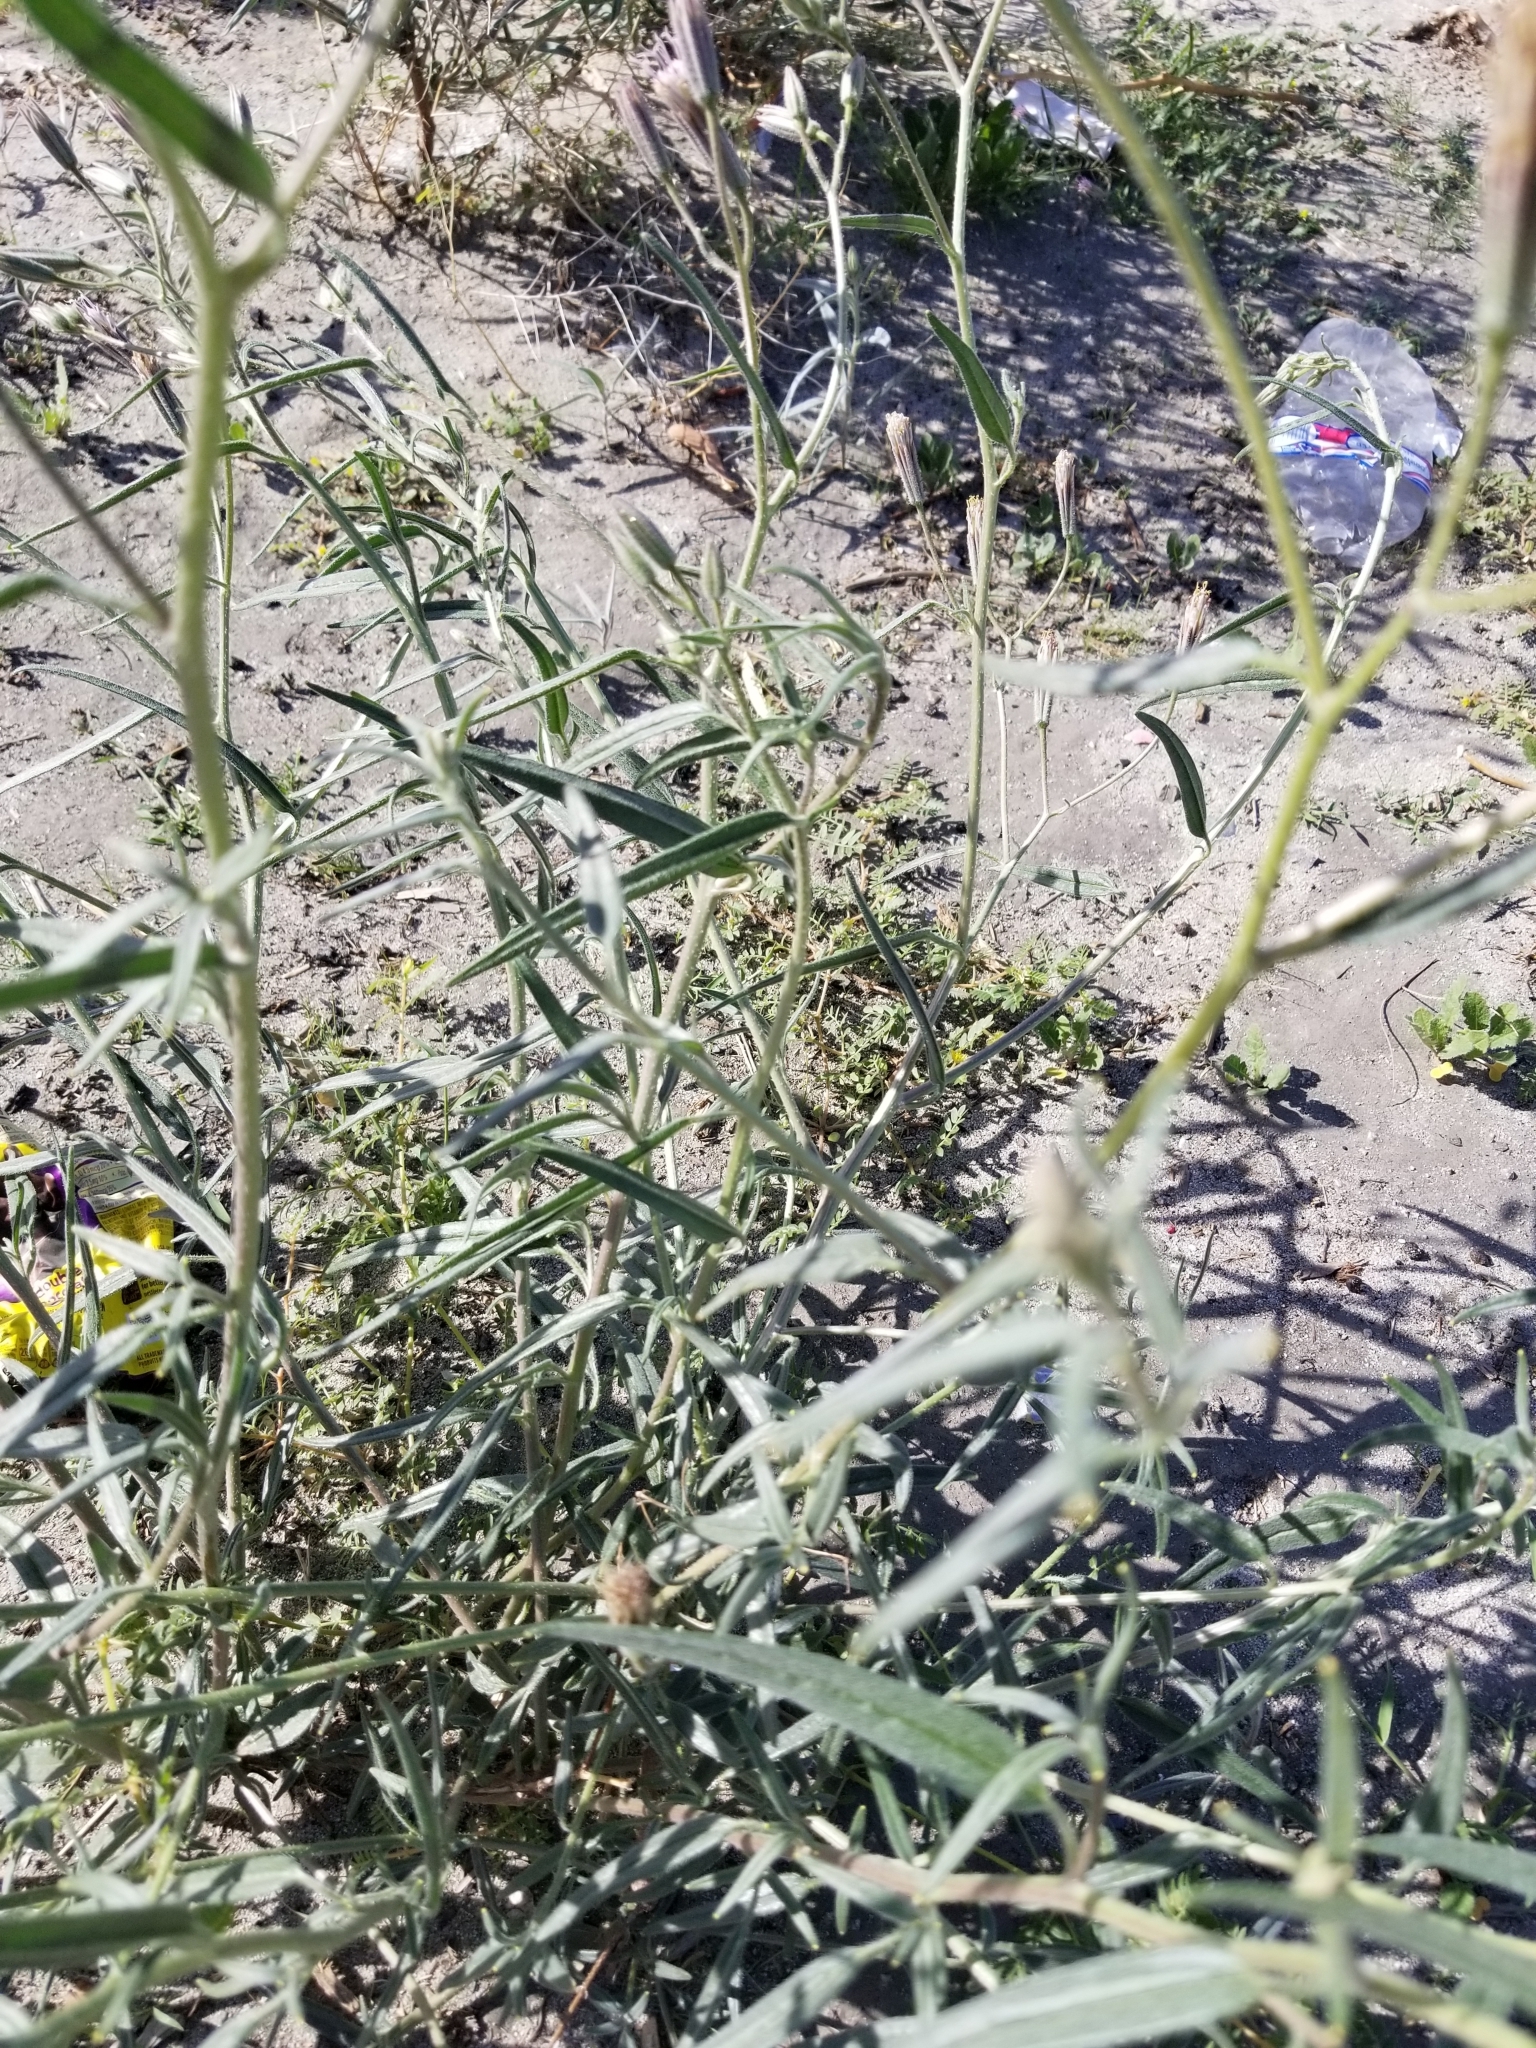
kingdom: Plantae
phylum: Tracheophyta
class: Magnoliopsida
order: Asterales
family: Asteraceae
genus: Palafoxia
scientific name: Palafoxia arida
